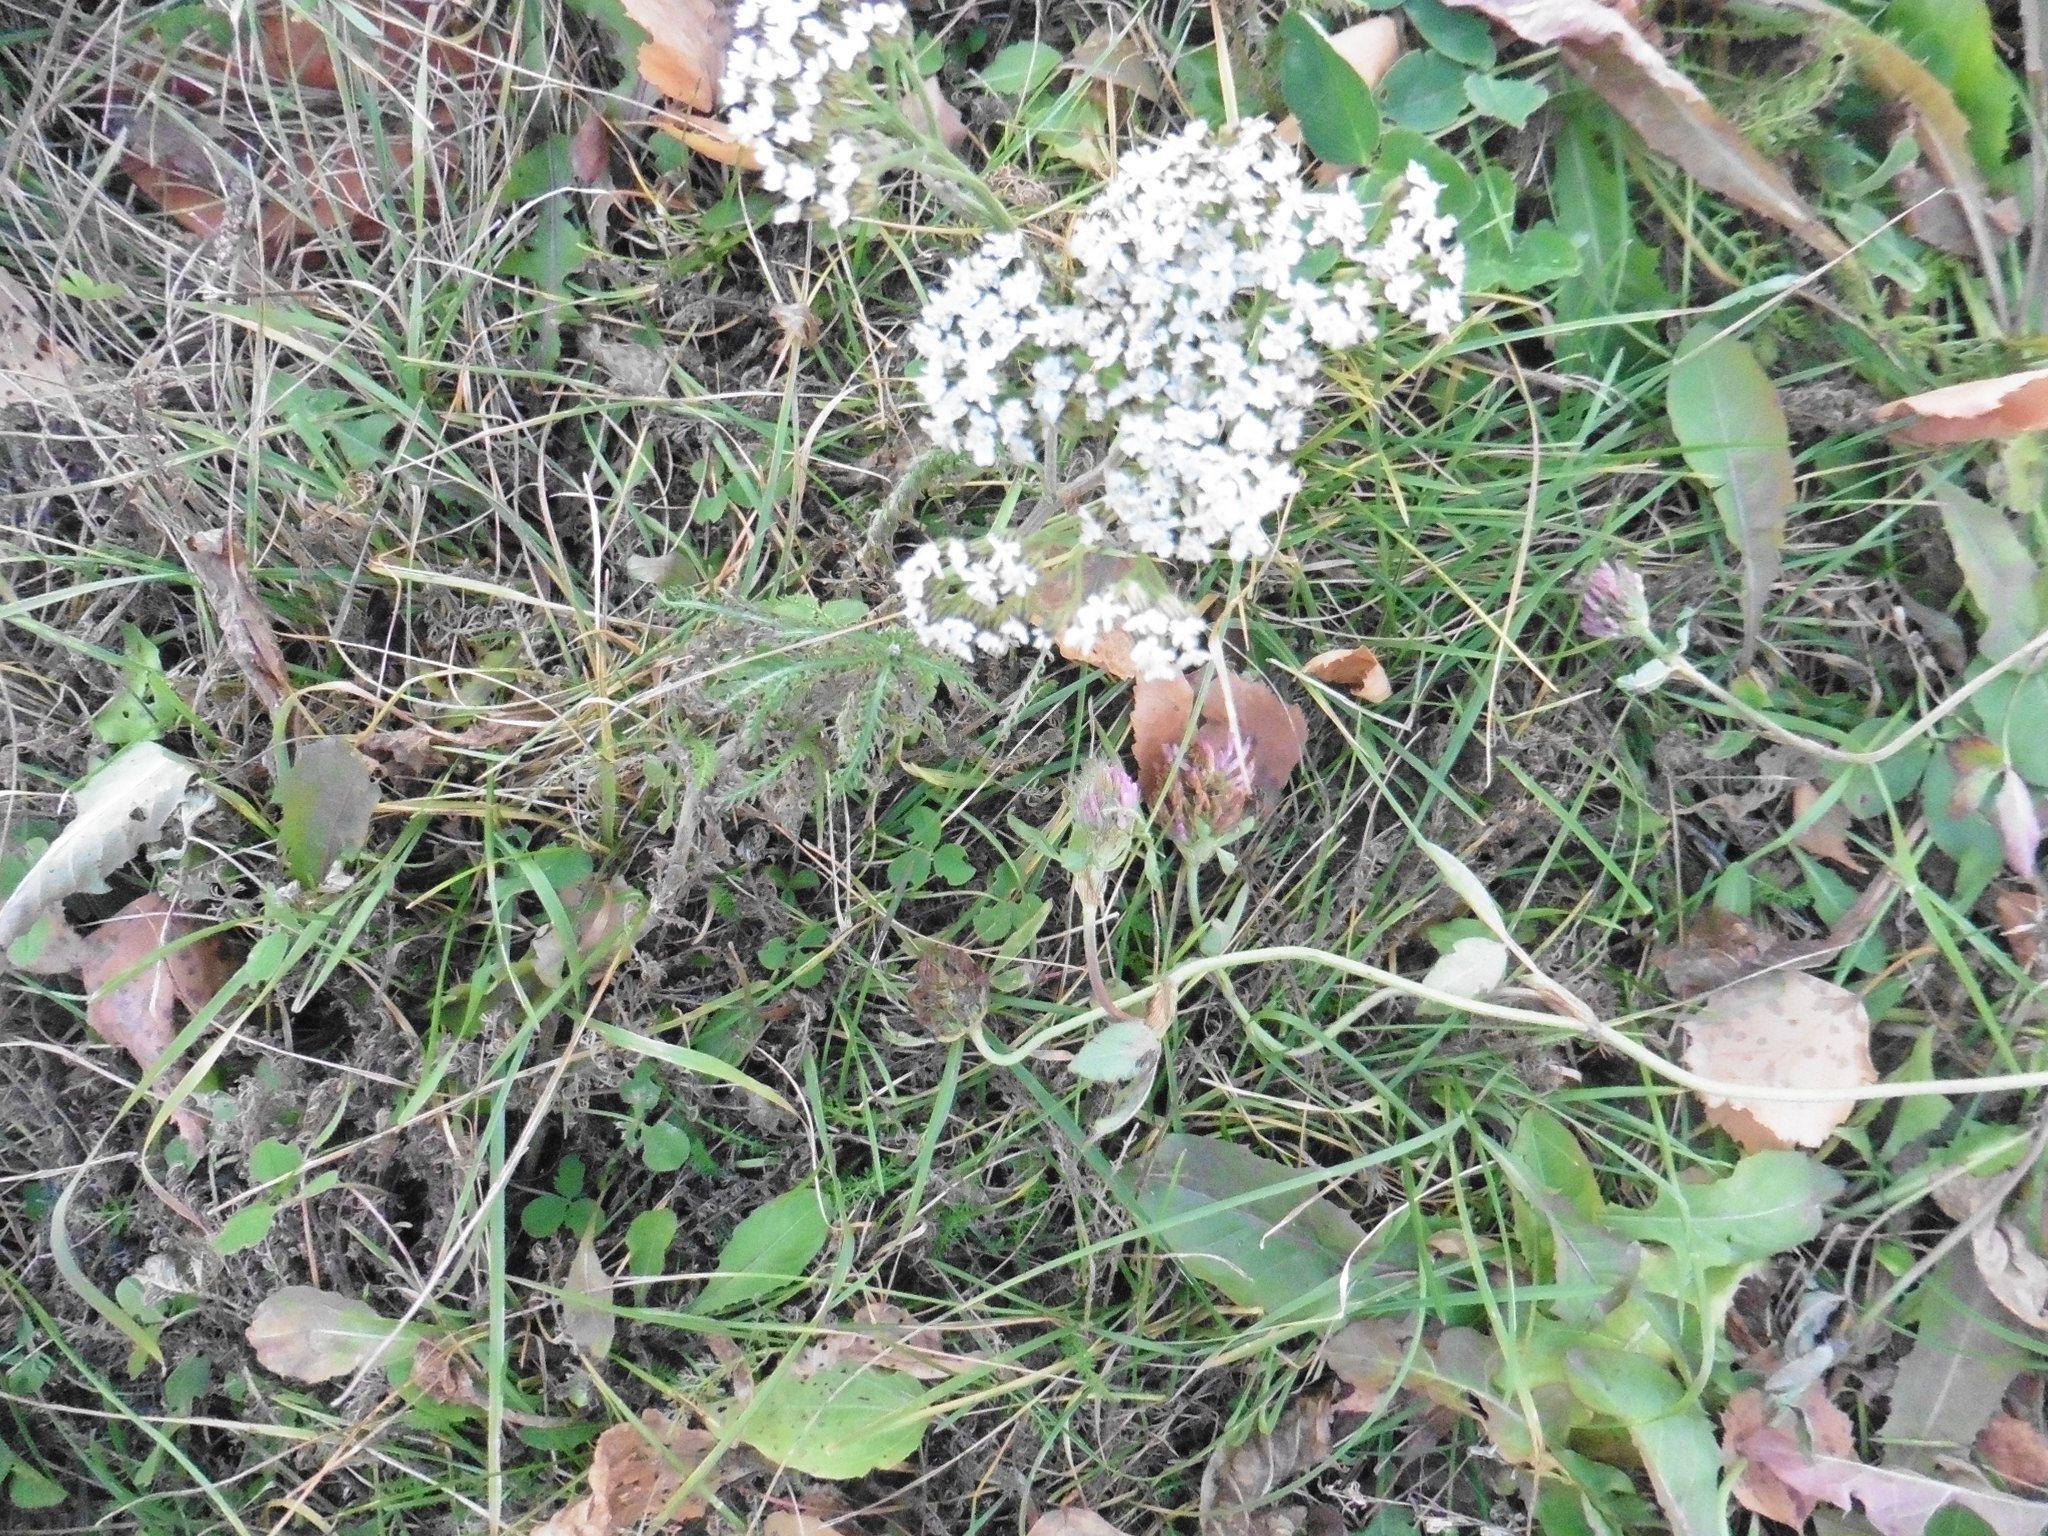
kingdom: Plantae
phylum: Tracheophyta
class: Magnoliopsida
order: Asterales
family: Asteraceae
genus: Achillea
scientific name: Achillea millefolium
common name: Yarrow
